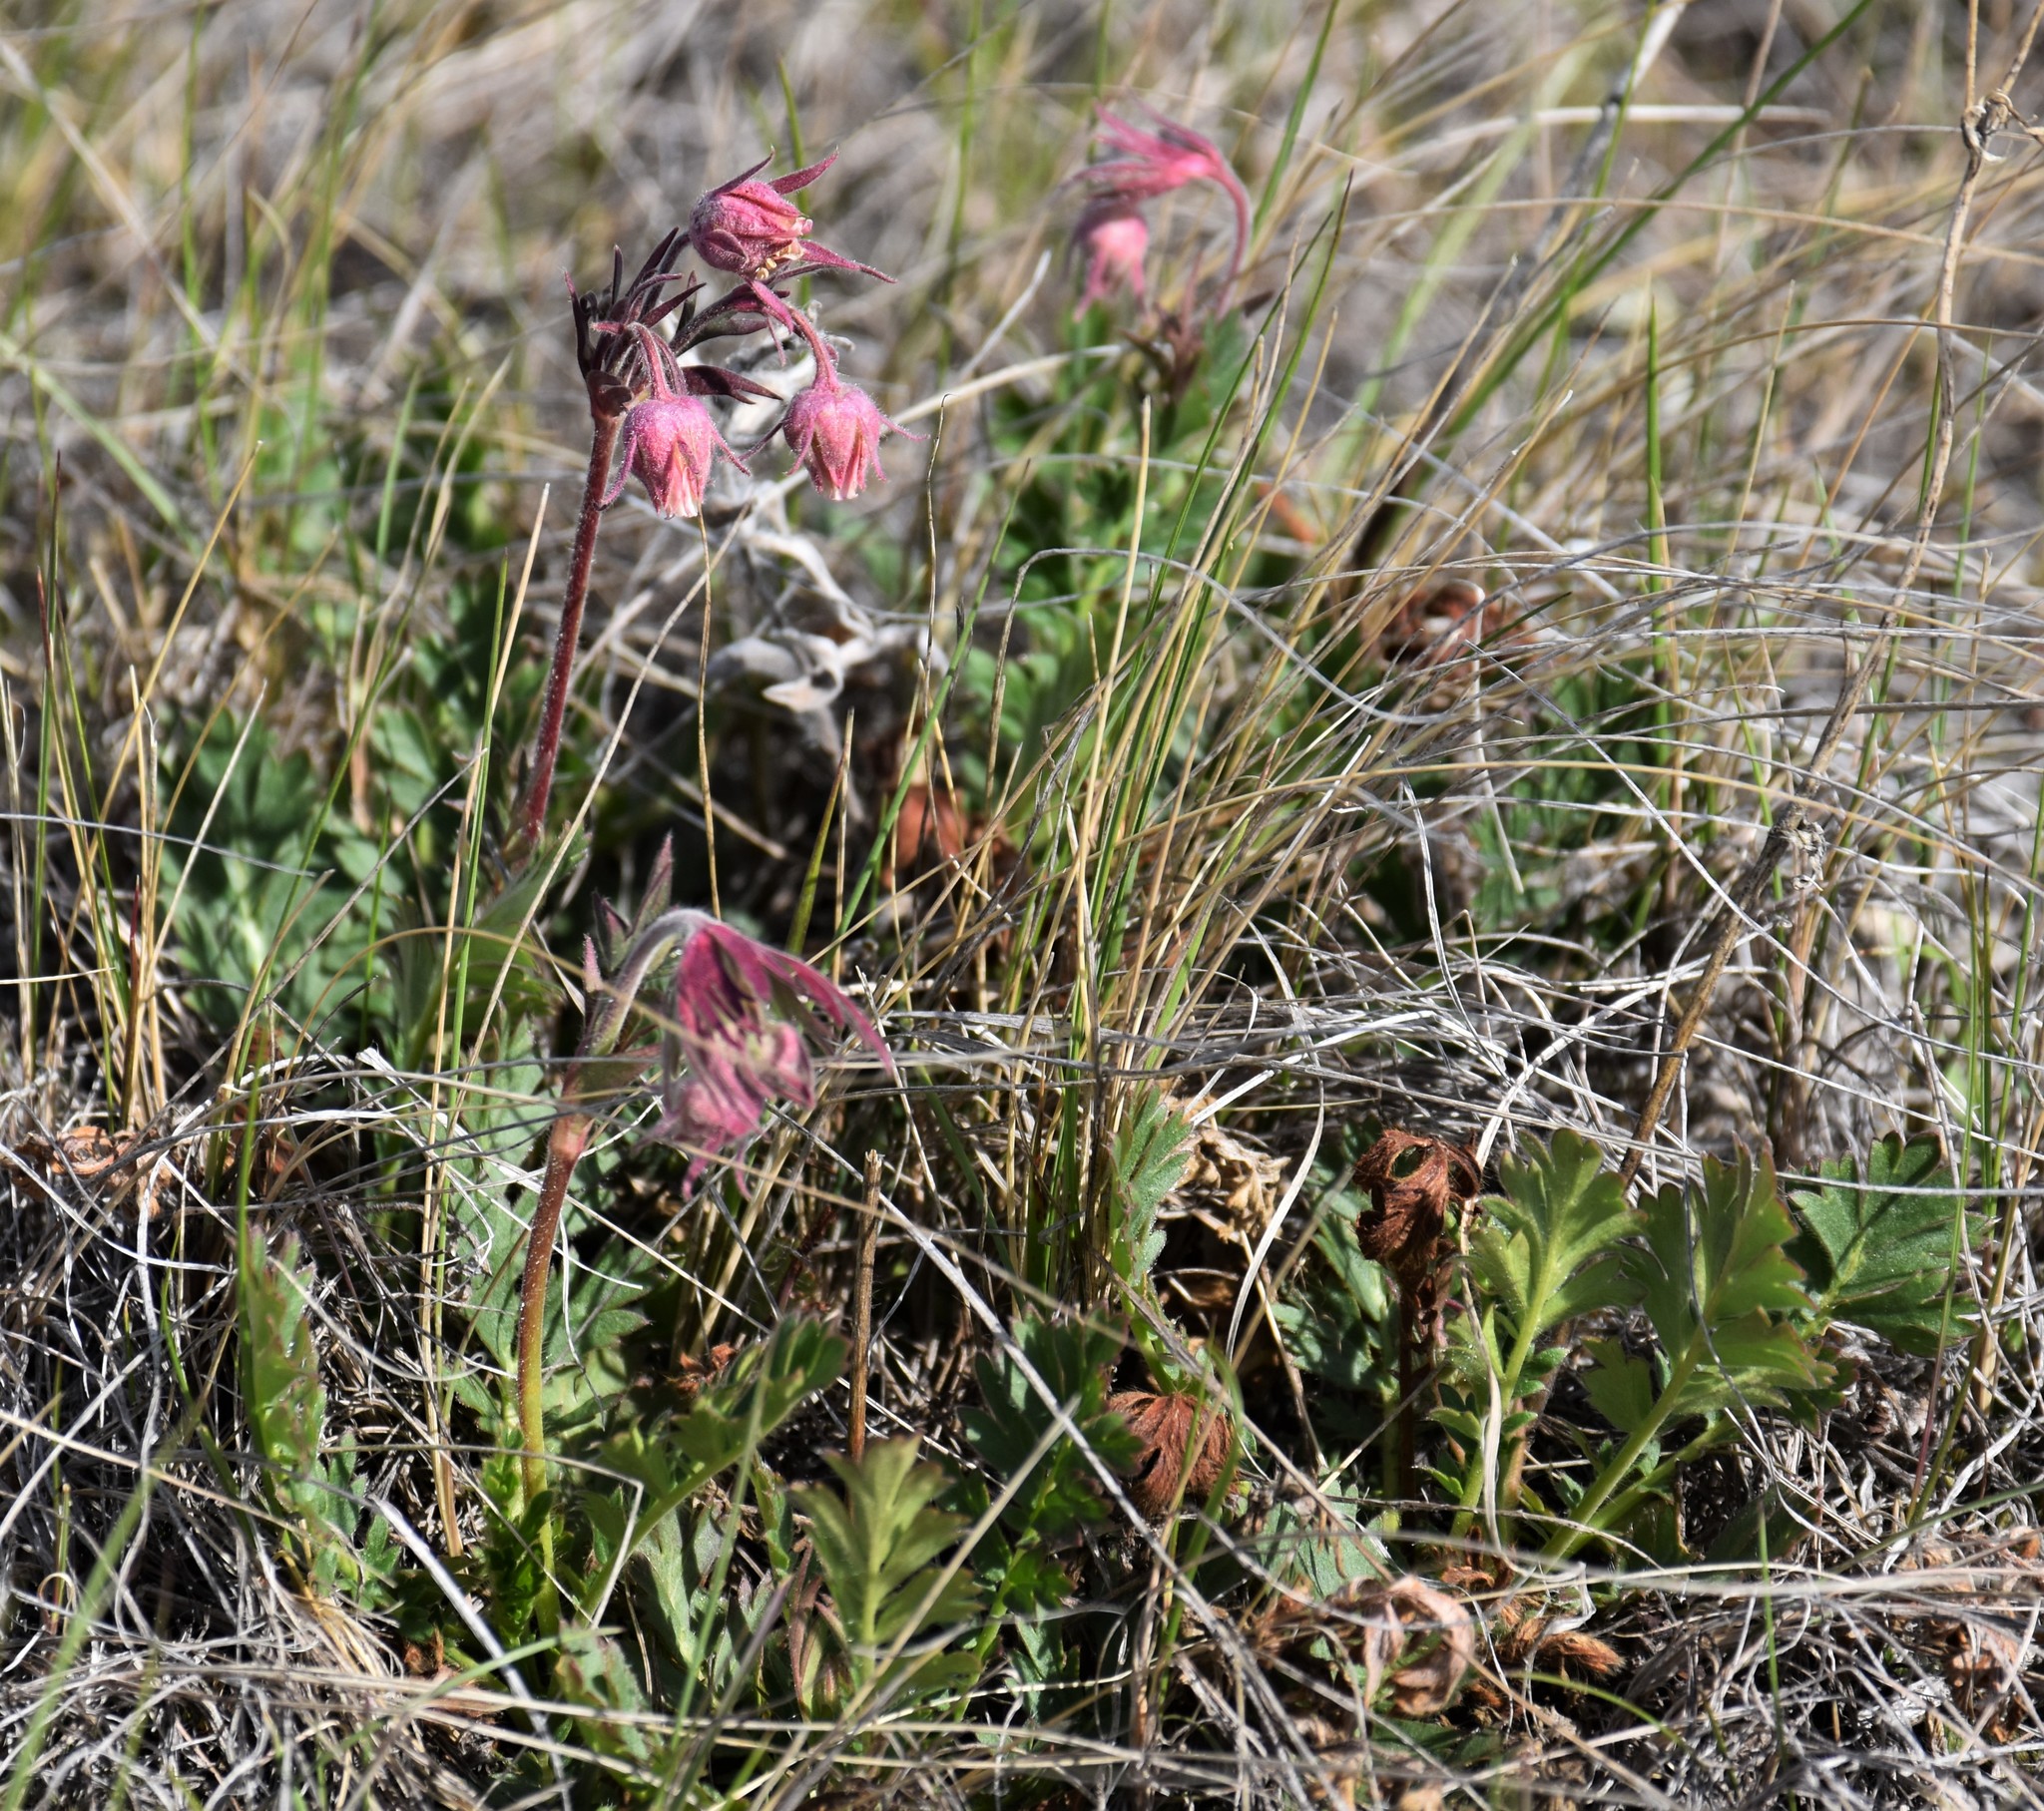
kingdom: Plantae
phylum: Tracheophyta
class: Magnoliopsida
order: Rosales
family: Rosaceae
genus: Geum
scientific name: Geum triflorum
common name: Old man's whiskers
